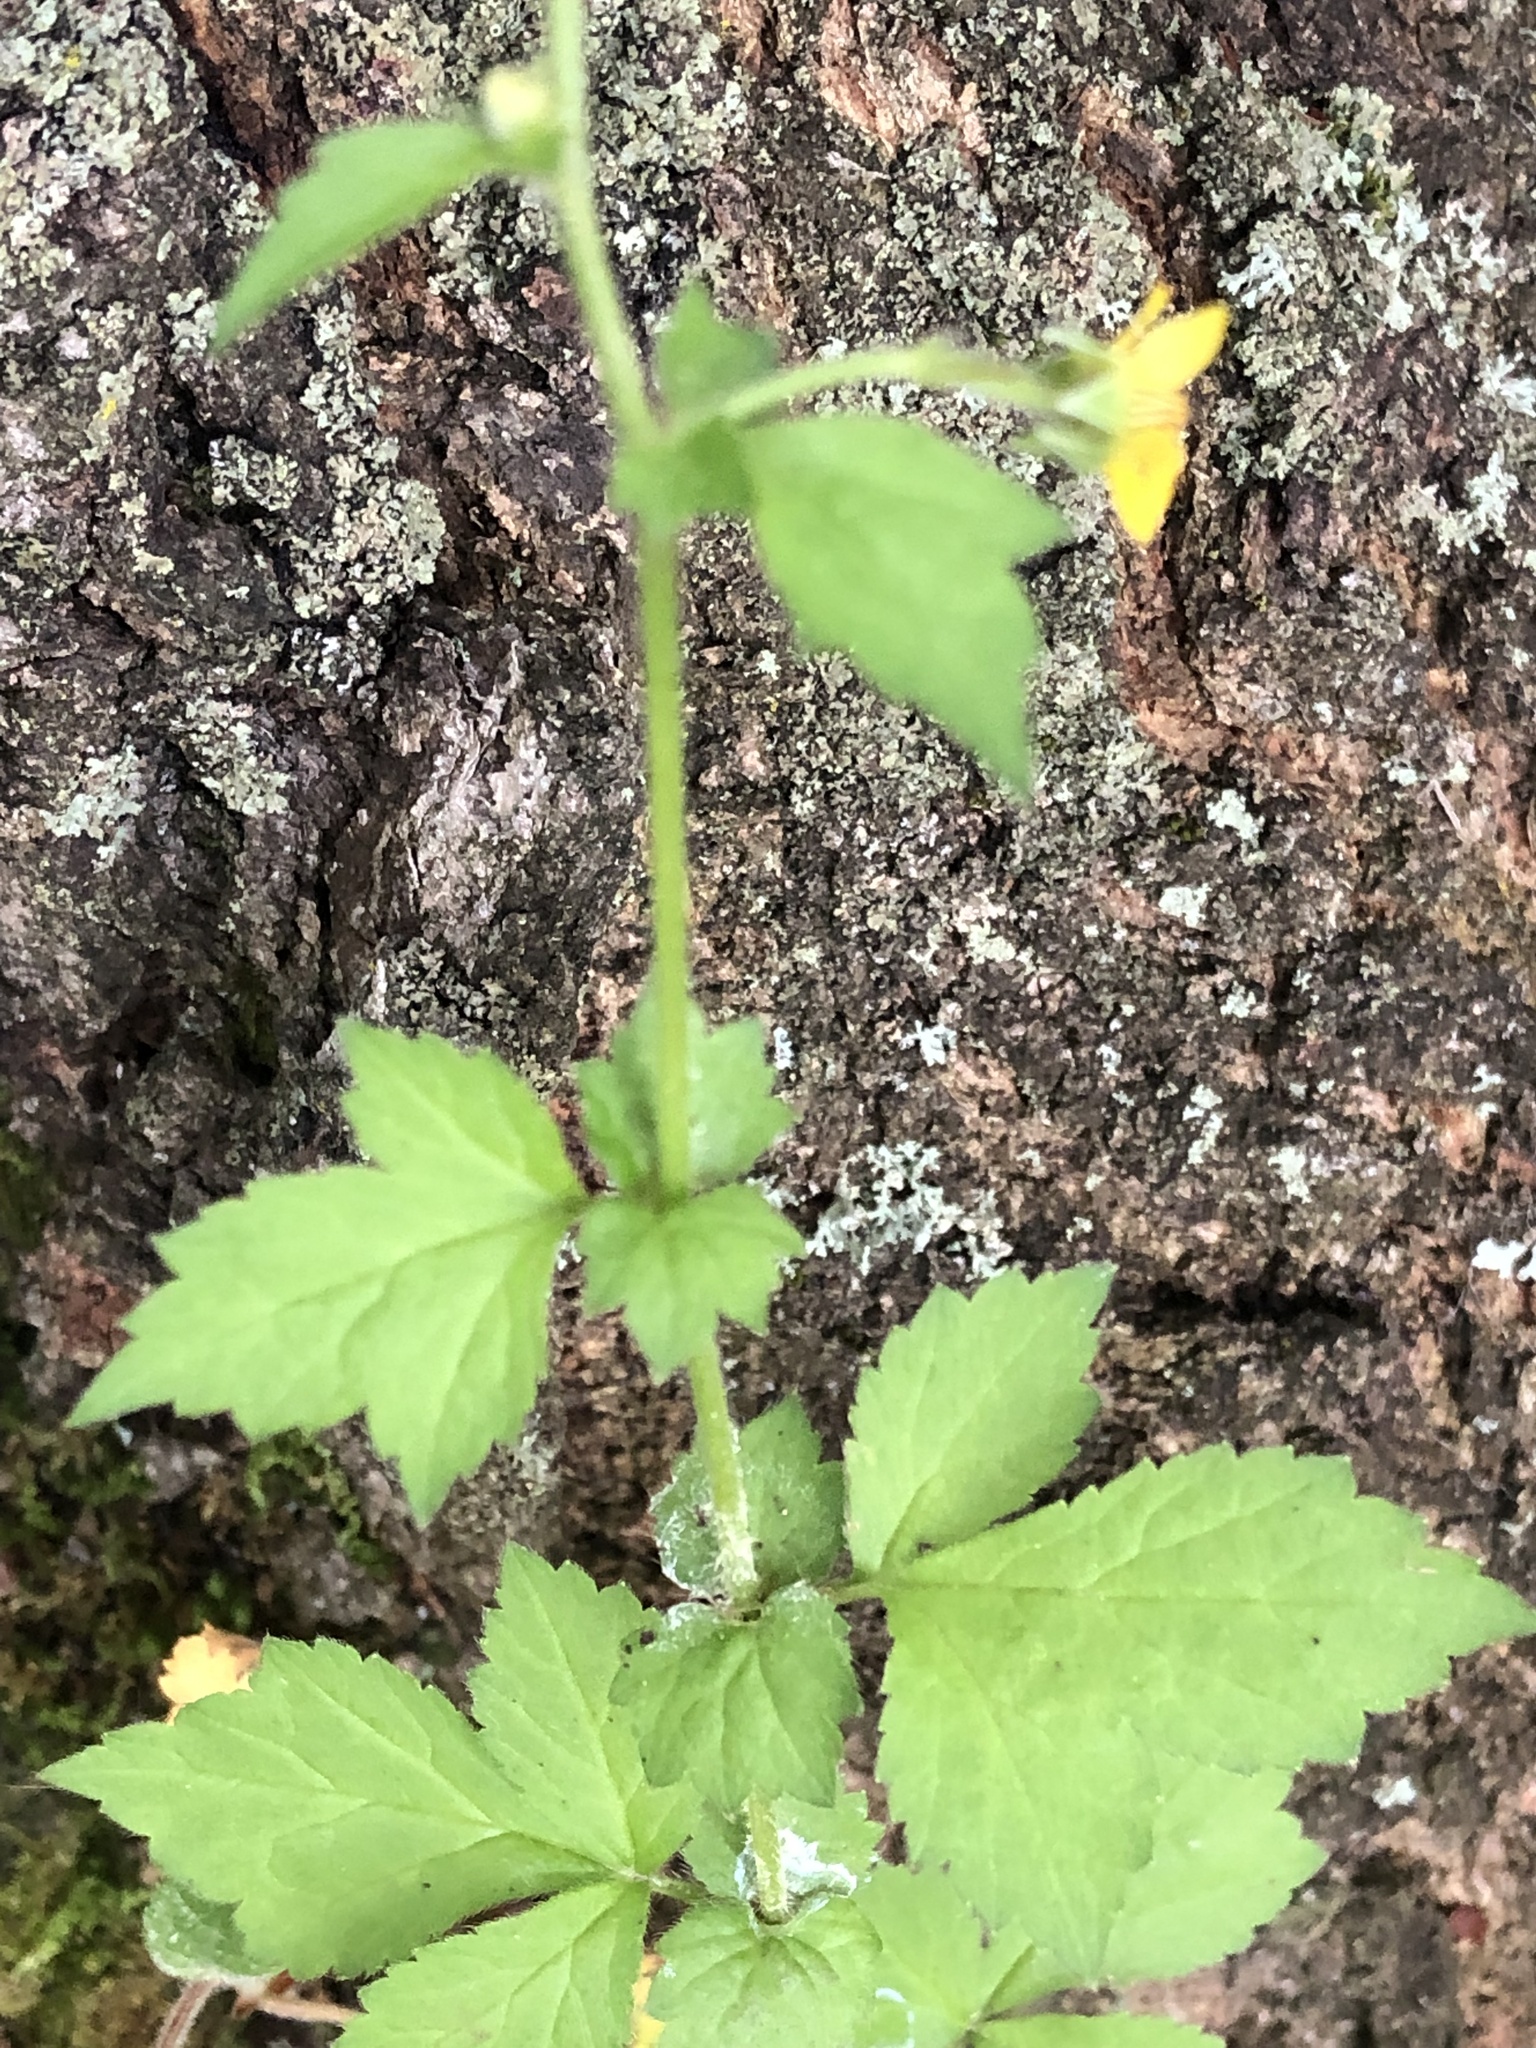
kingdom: Plantae
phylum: Tracheophyta
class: Magnoliopsida
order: Rosales
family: Rosaceae
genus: Geum
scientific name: Geum urbanum
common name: Wood avens
